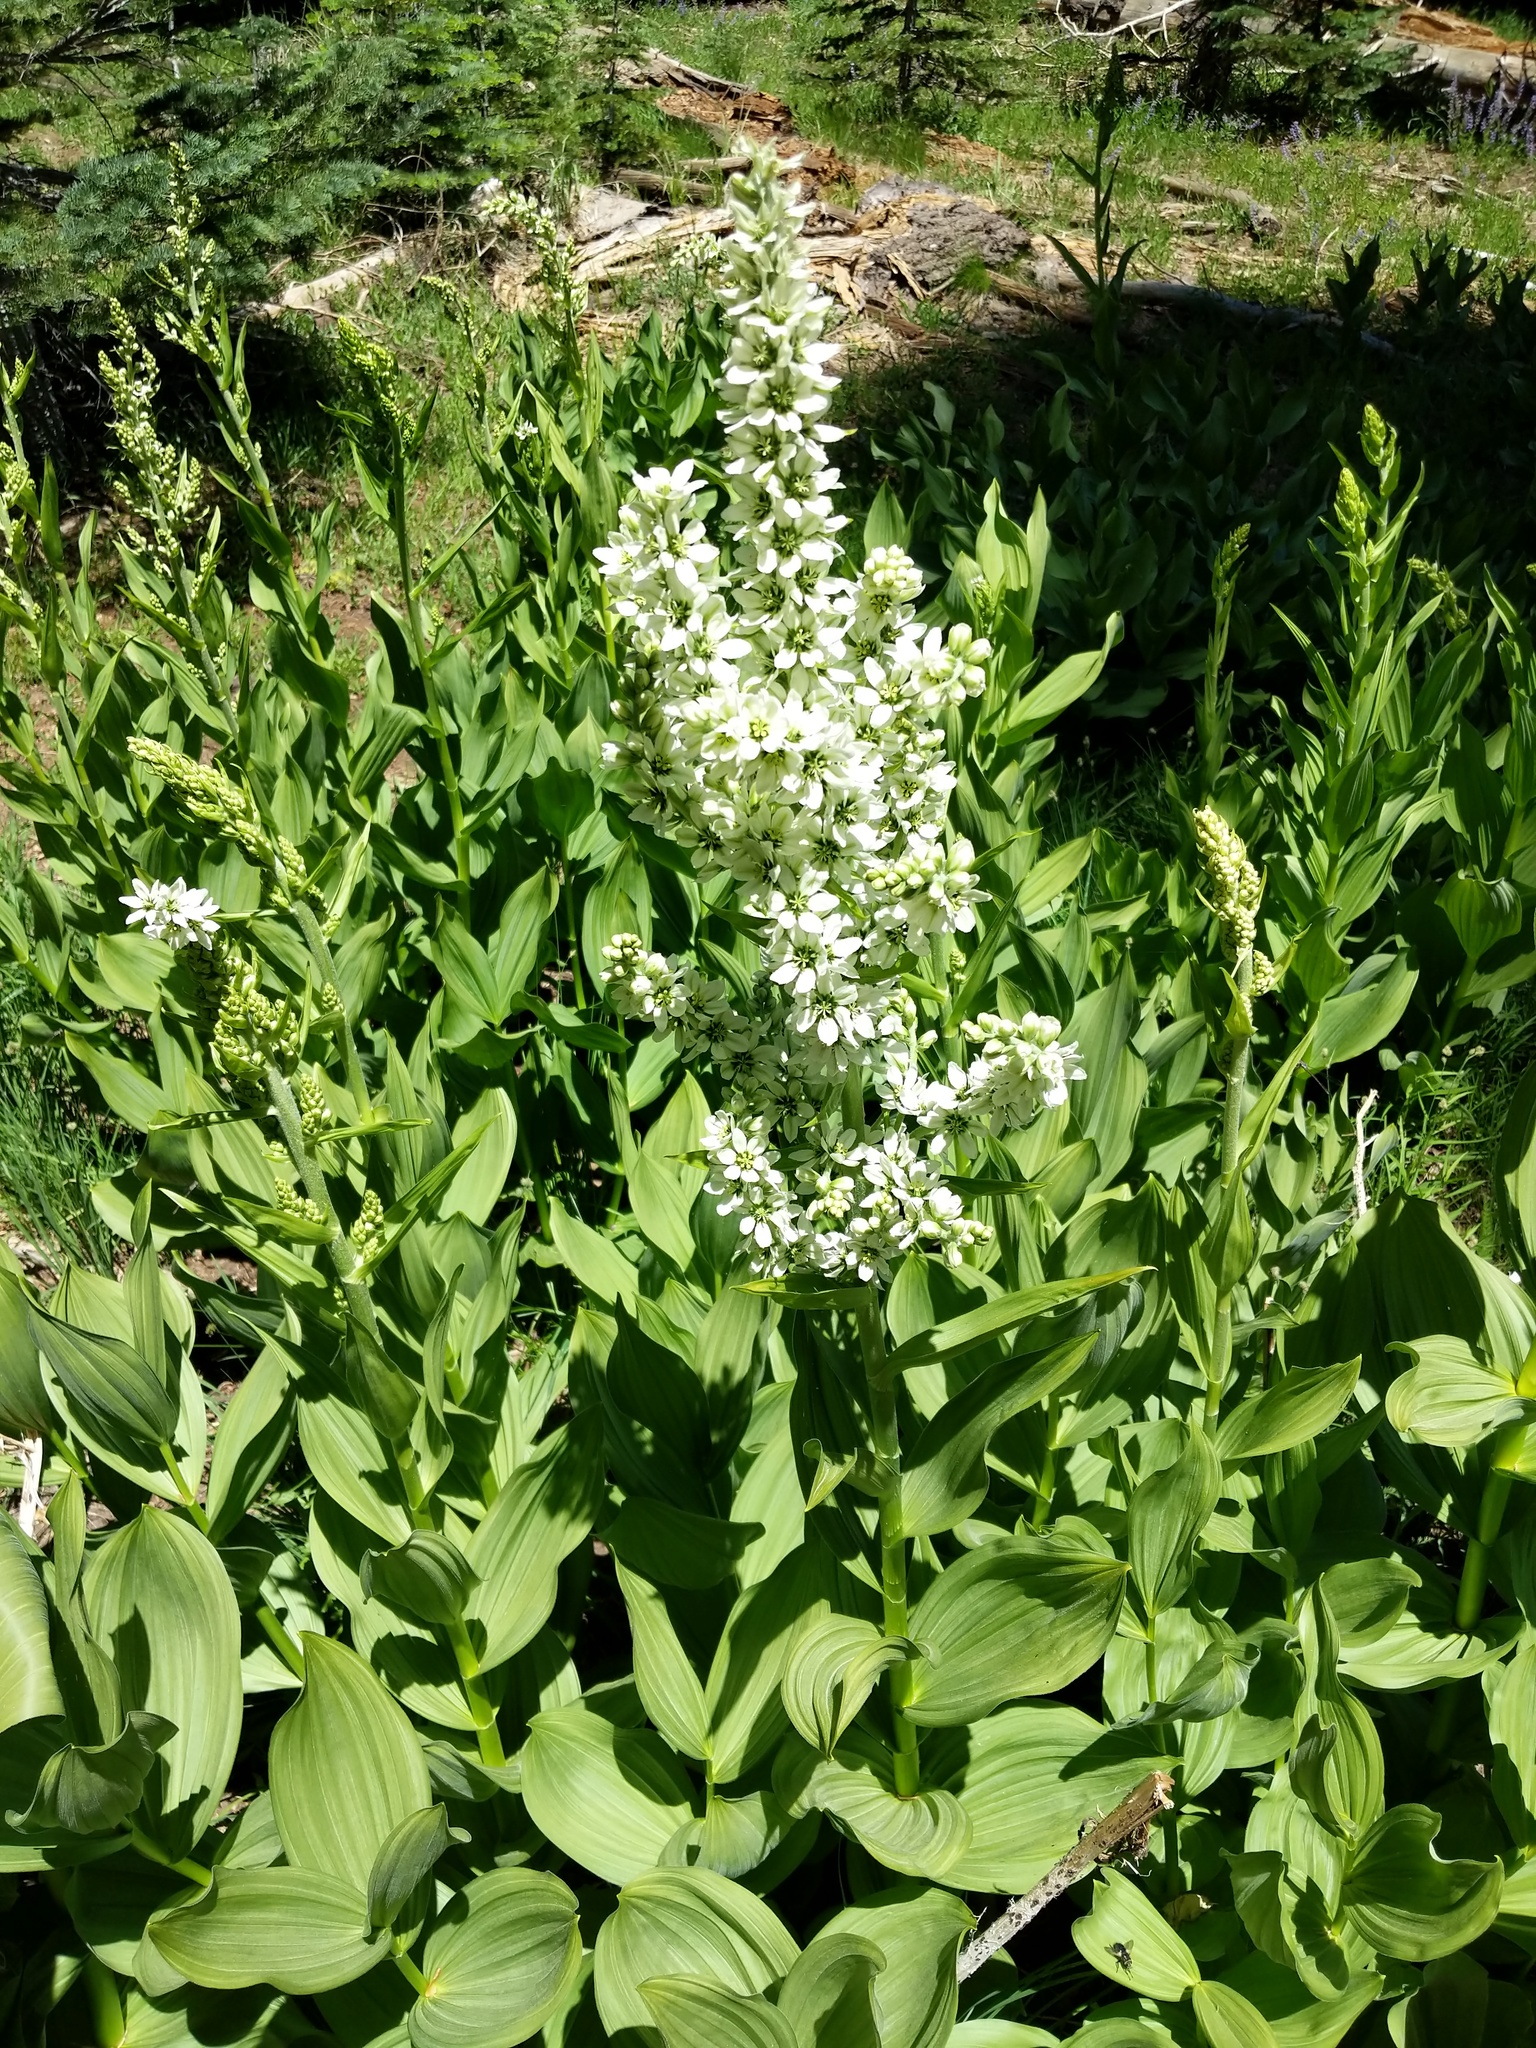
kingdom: Plantae
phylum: Tracheophyta
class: Liliopsida
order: Liliales
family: Melanthiaceae
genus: Veratrum
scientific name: Veratrum californicum
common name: California veratrum
